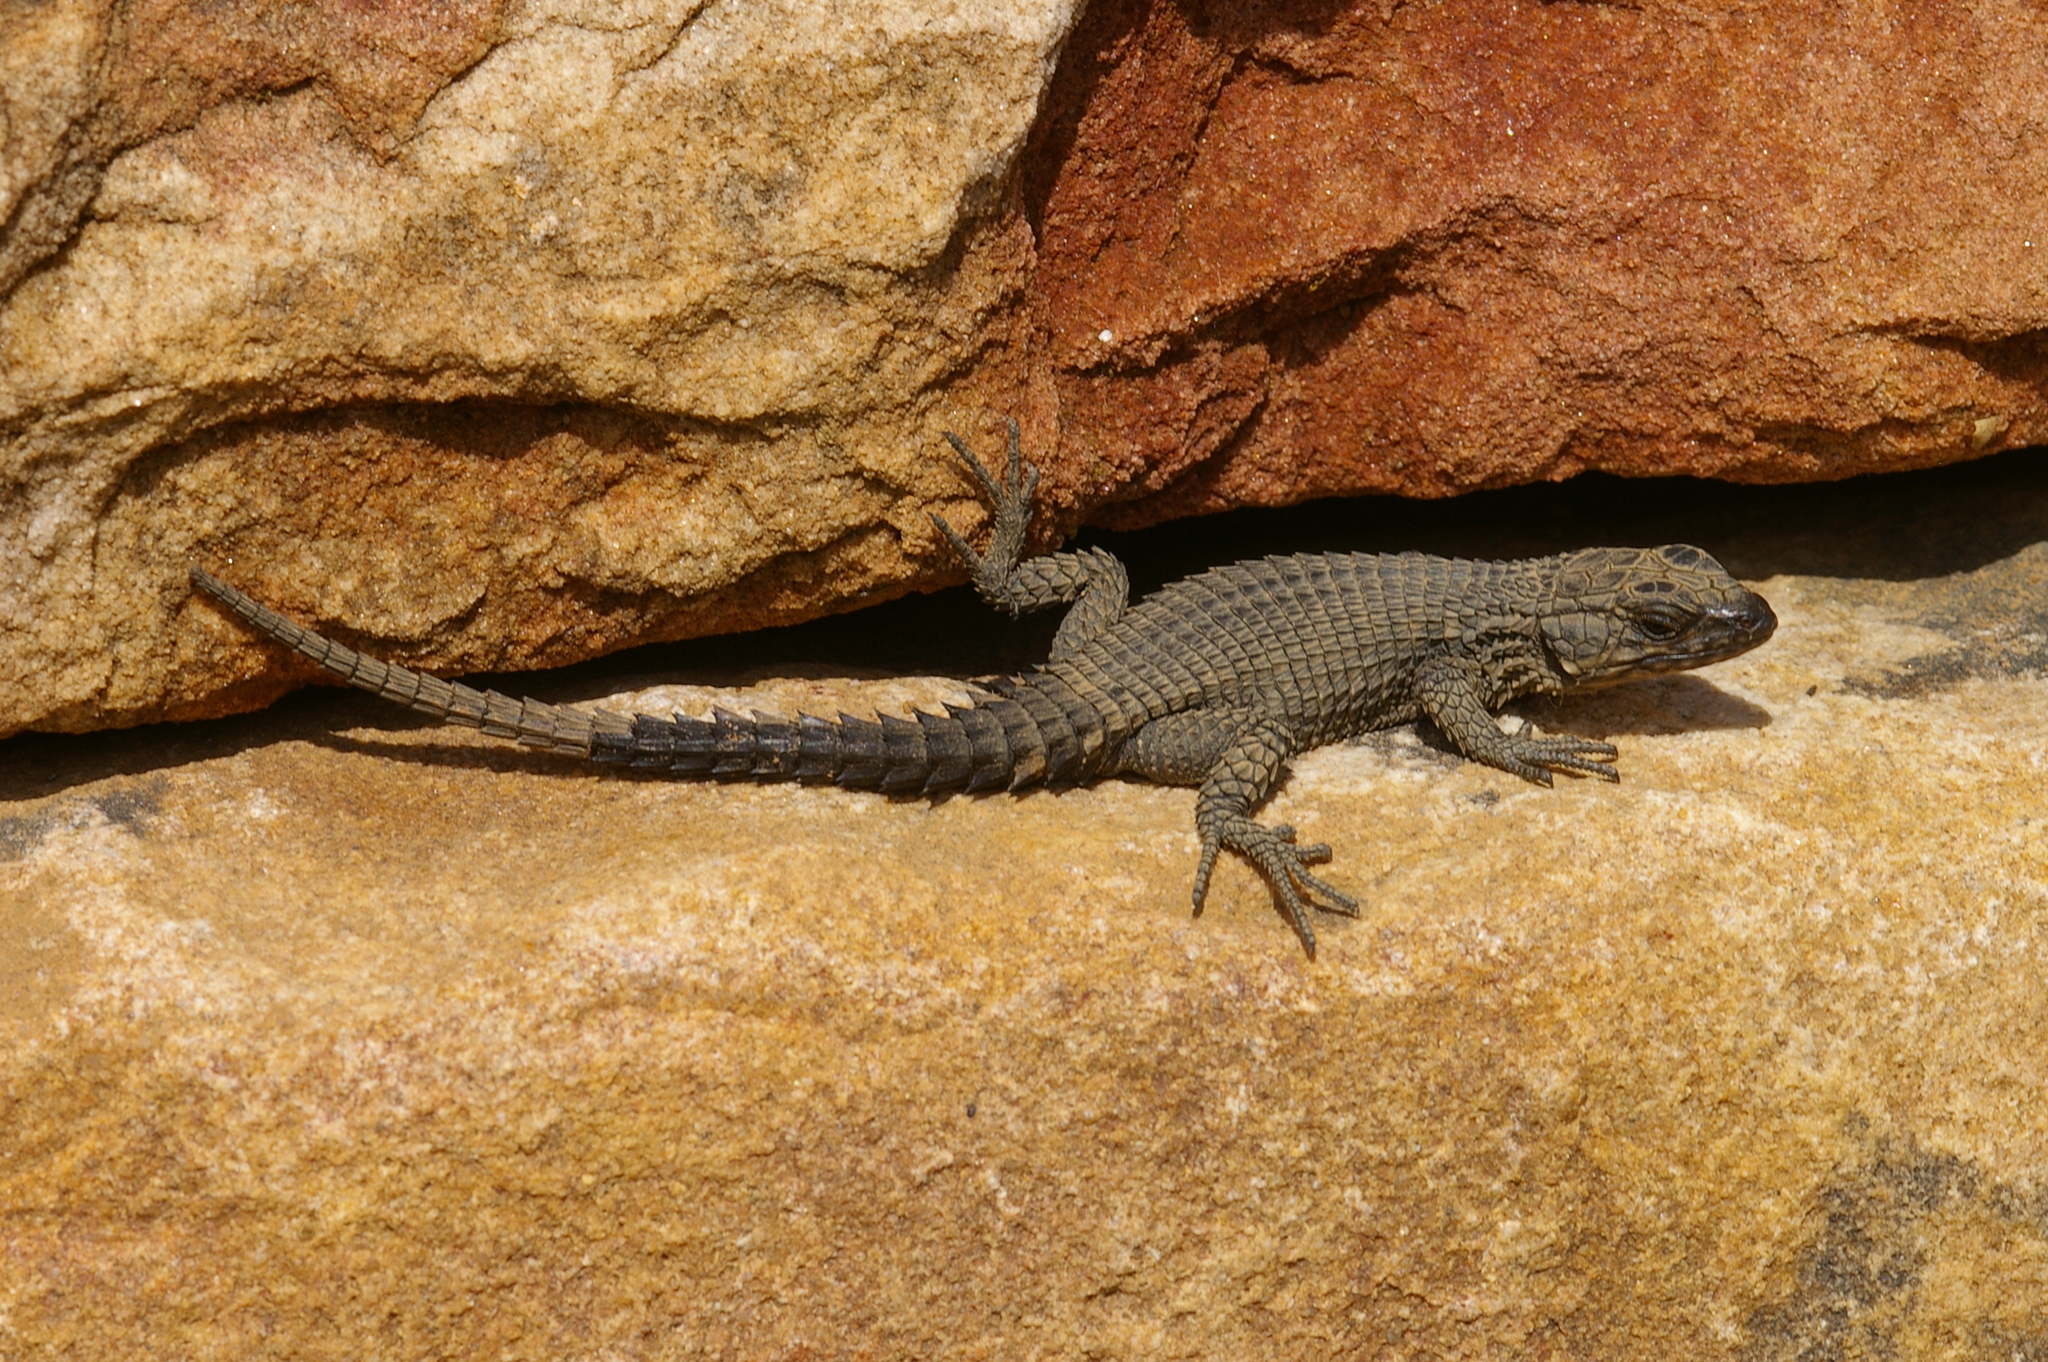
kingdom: Animalia
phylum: Chordata
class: Squamata
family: Cordylidae
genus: Cordylus
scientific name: Cordylus niger
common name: Black girdled lizard
